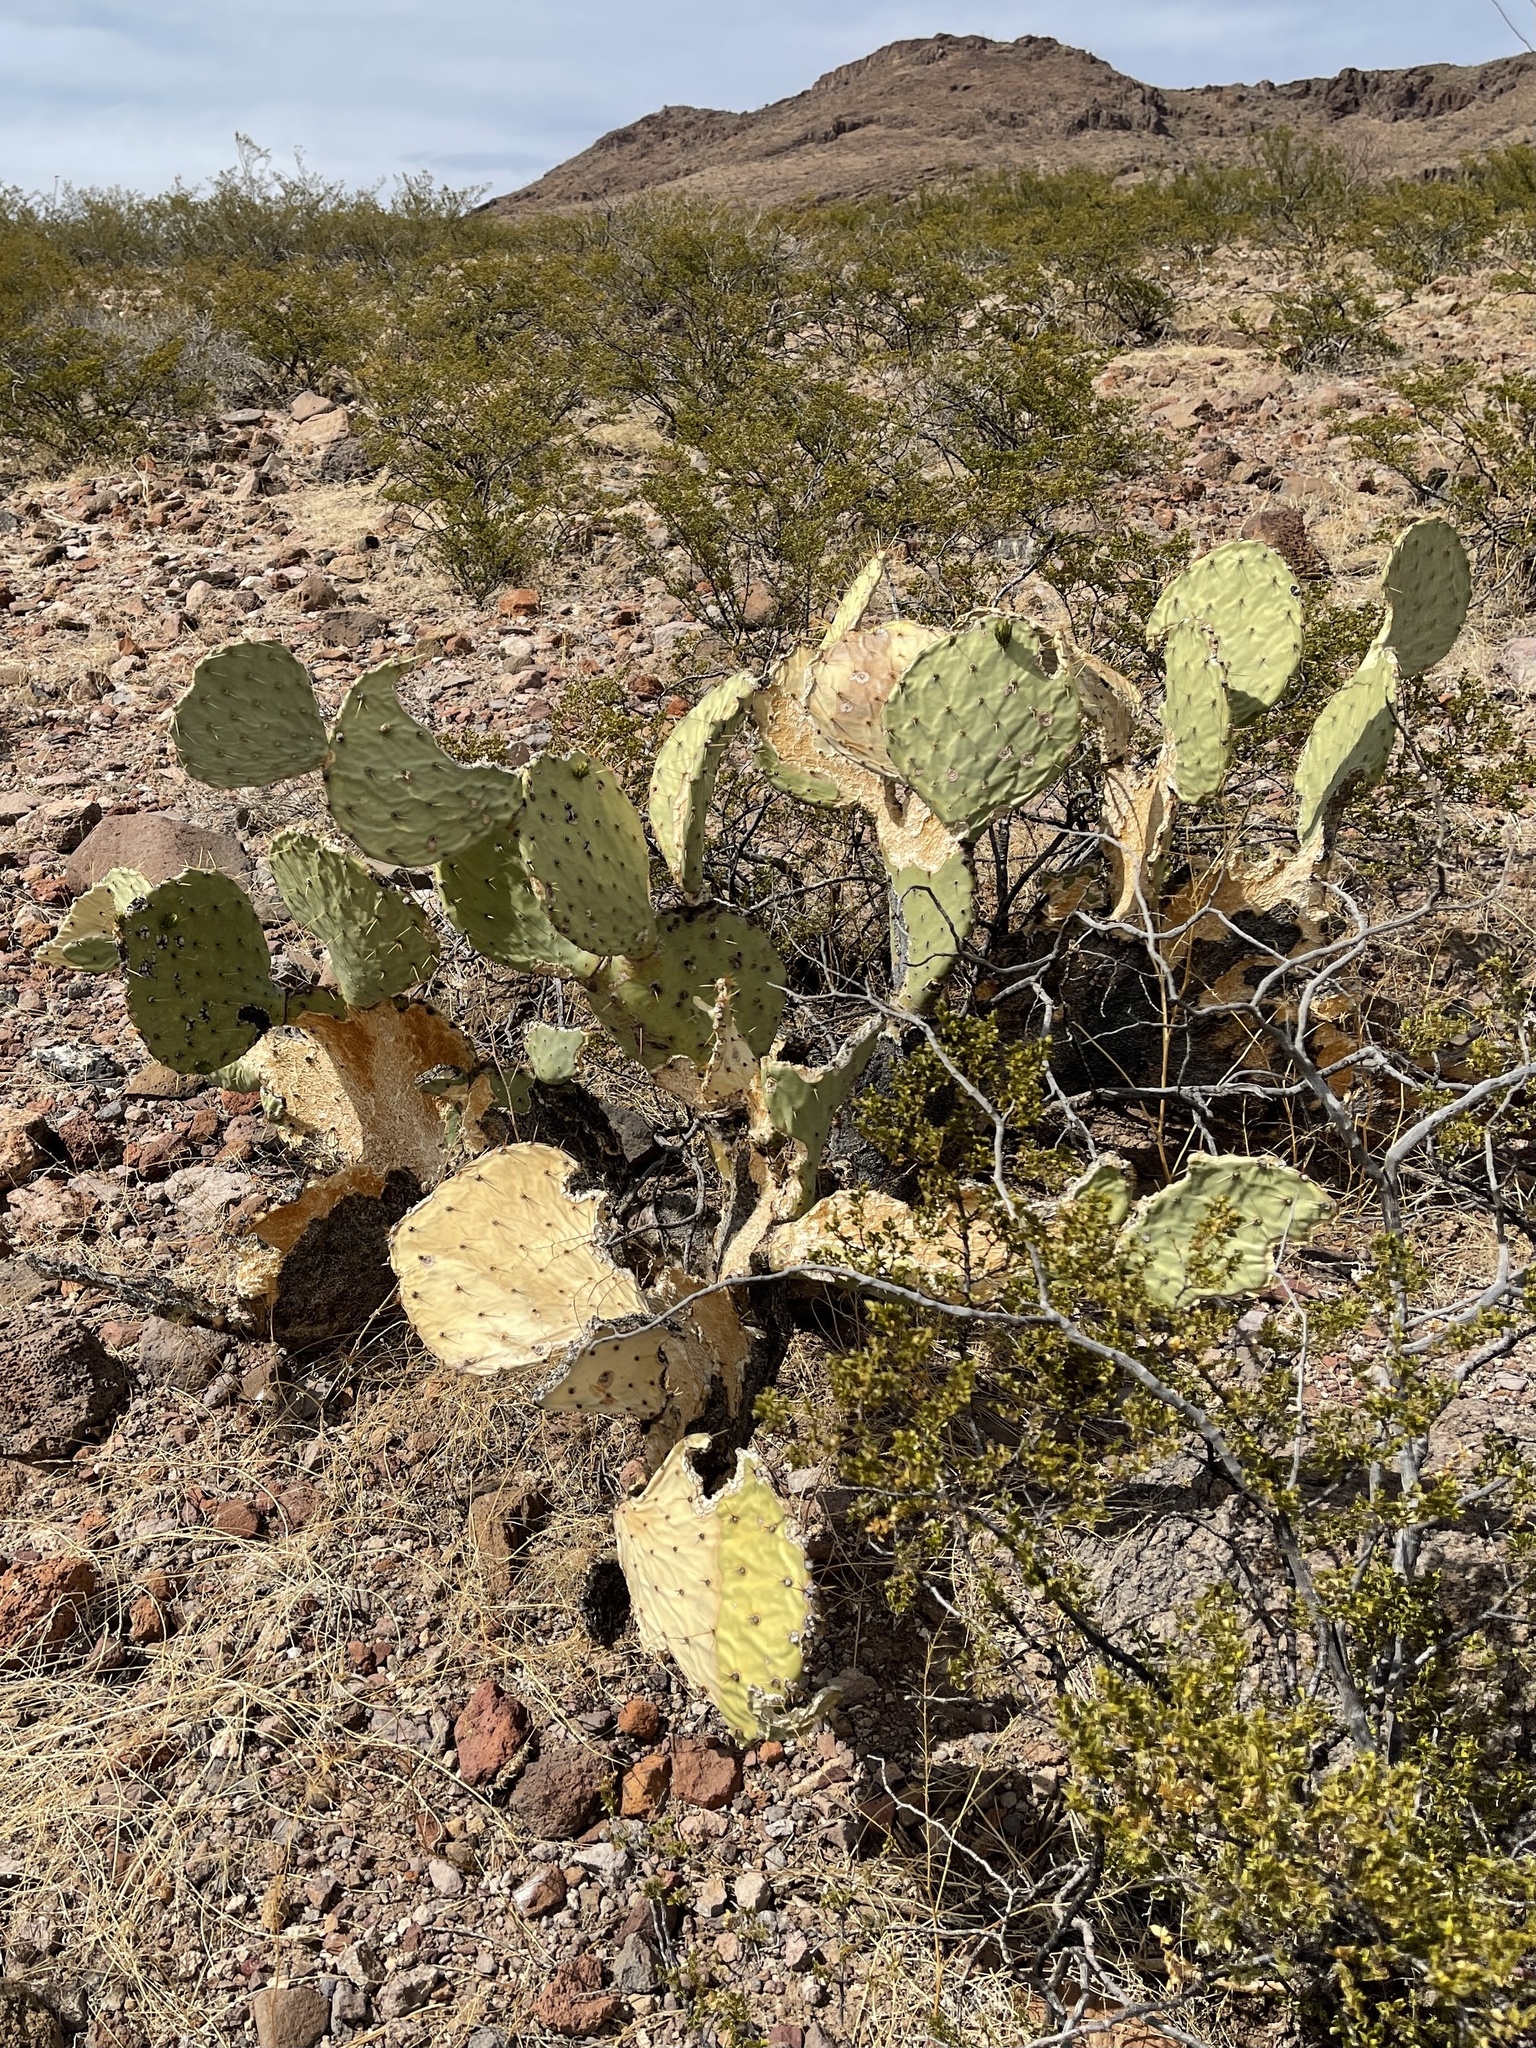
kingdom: Plantae
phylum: Tracheophyta
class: Magnoliopsida
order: Caryophyllales
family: Cactaceae
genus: Opuntia
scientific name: Opuntia engelmannii
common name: Cactus-apple
